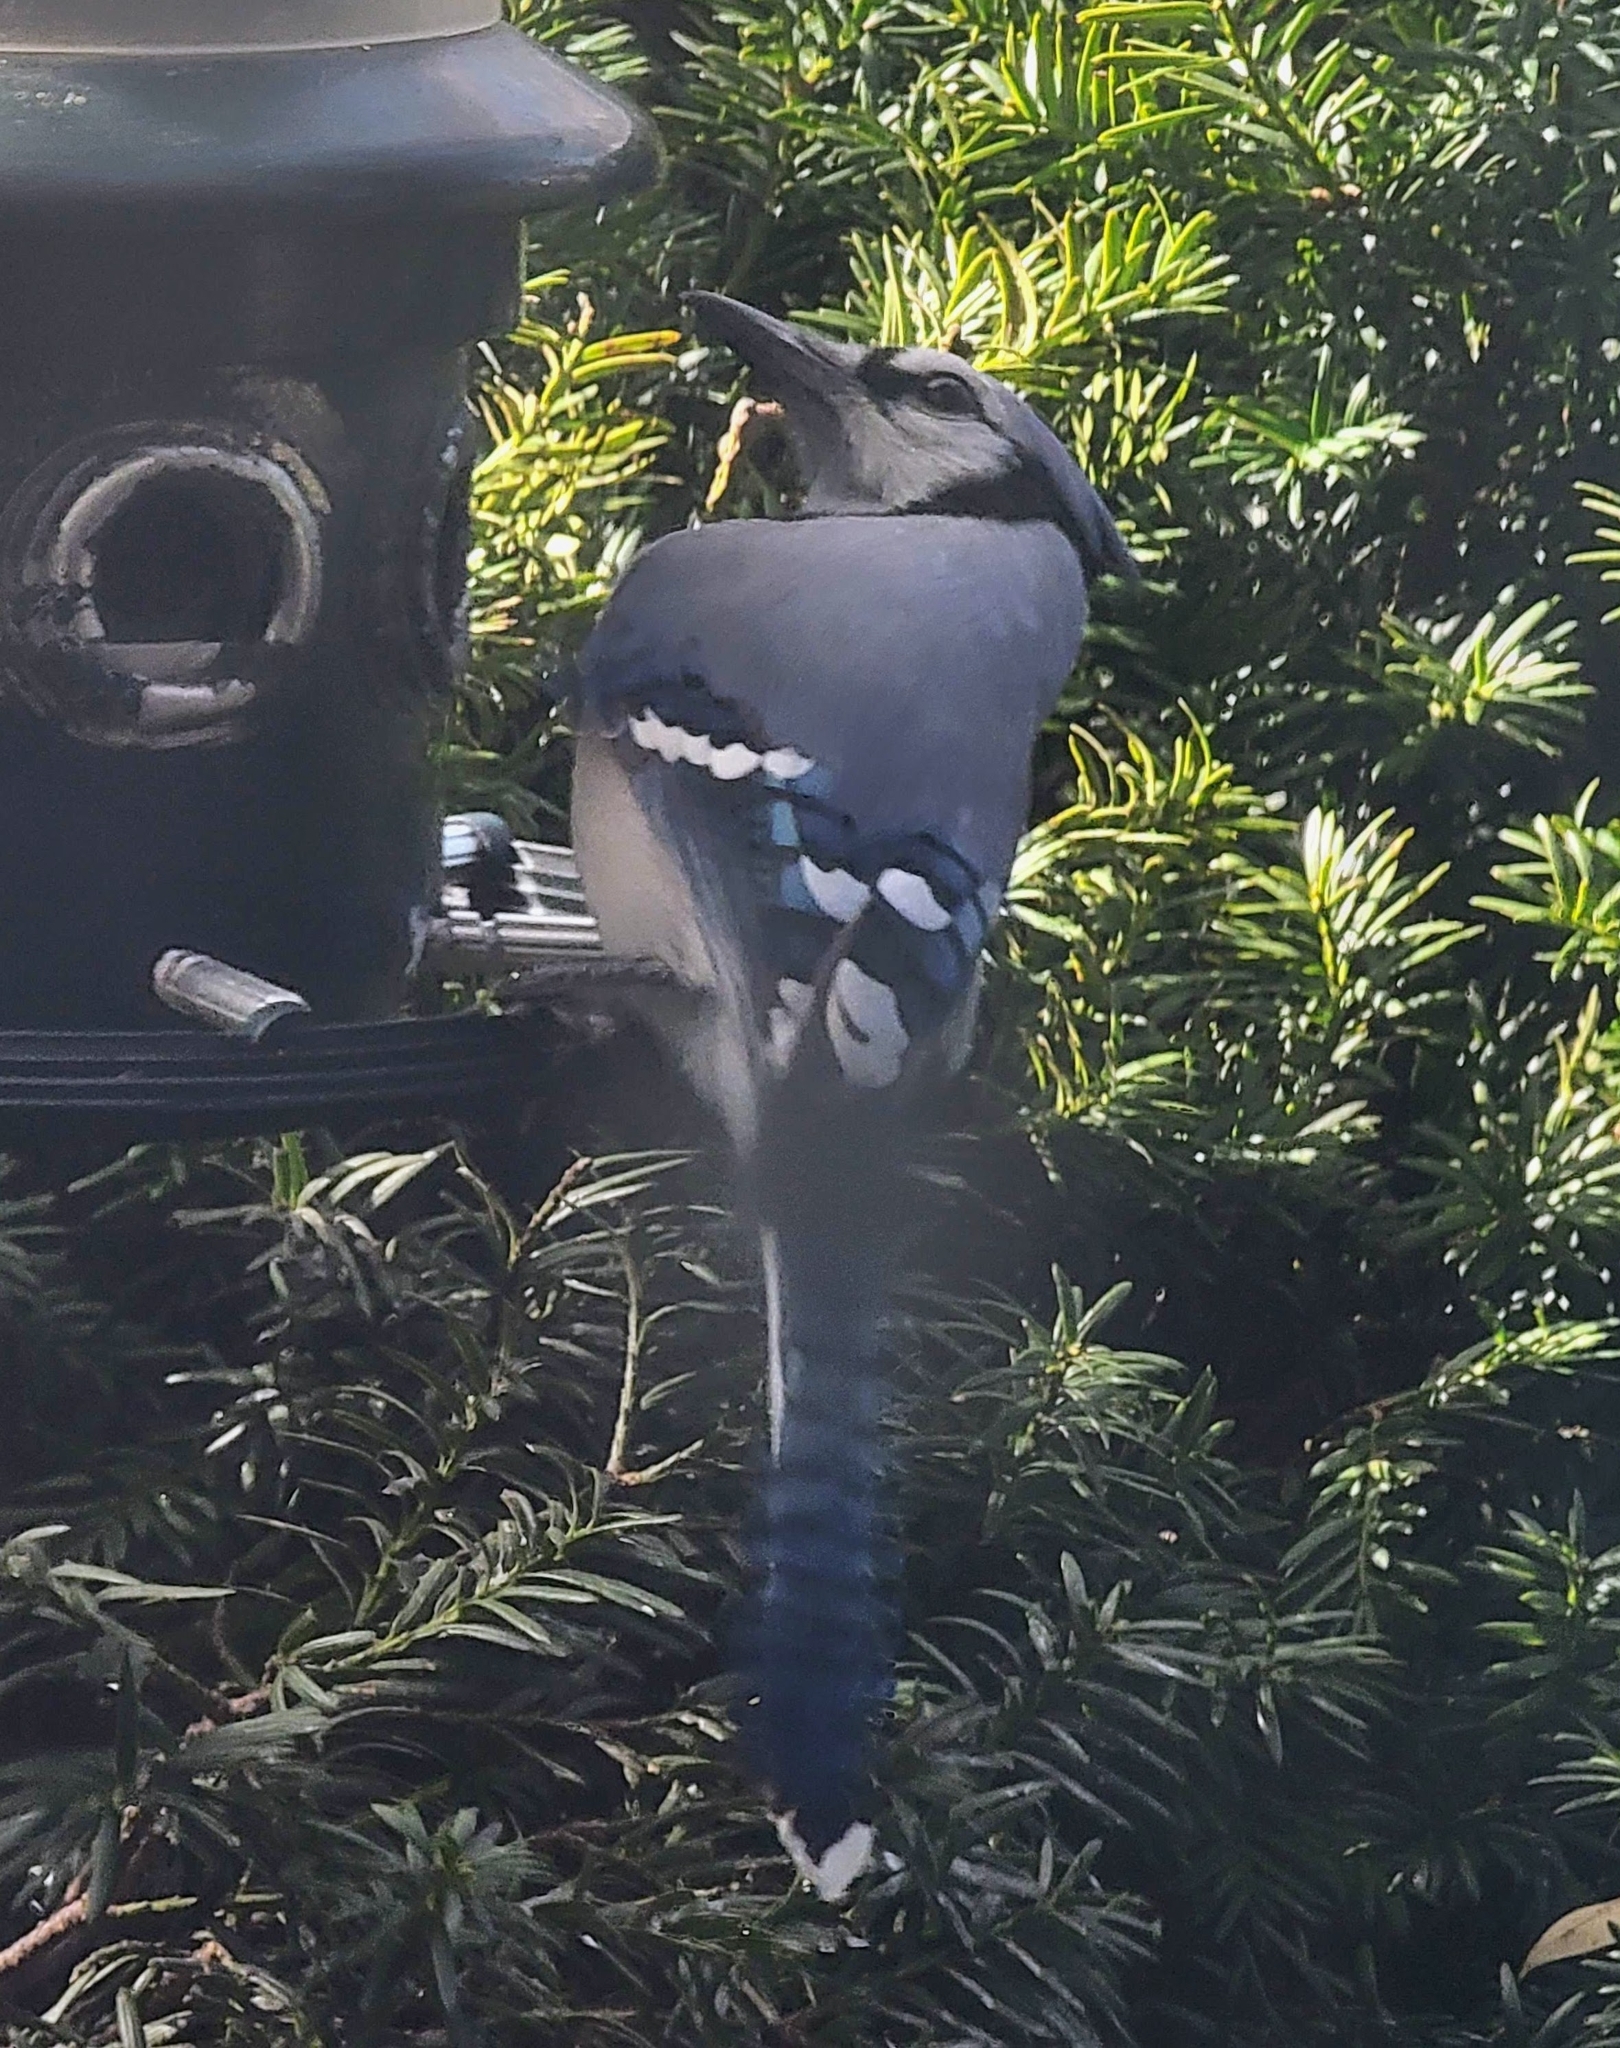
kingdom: Animalia
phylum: Chordata
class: Aves
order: Passeriformes
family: Corvidae
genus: Cyanocitta
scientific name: Cyanocitta cristata
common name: Blue jay
